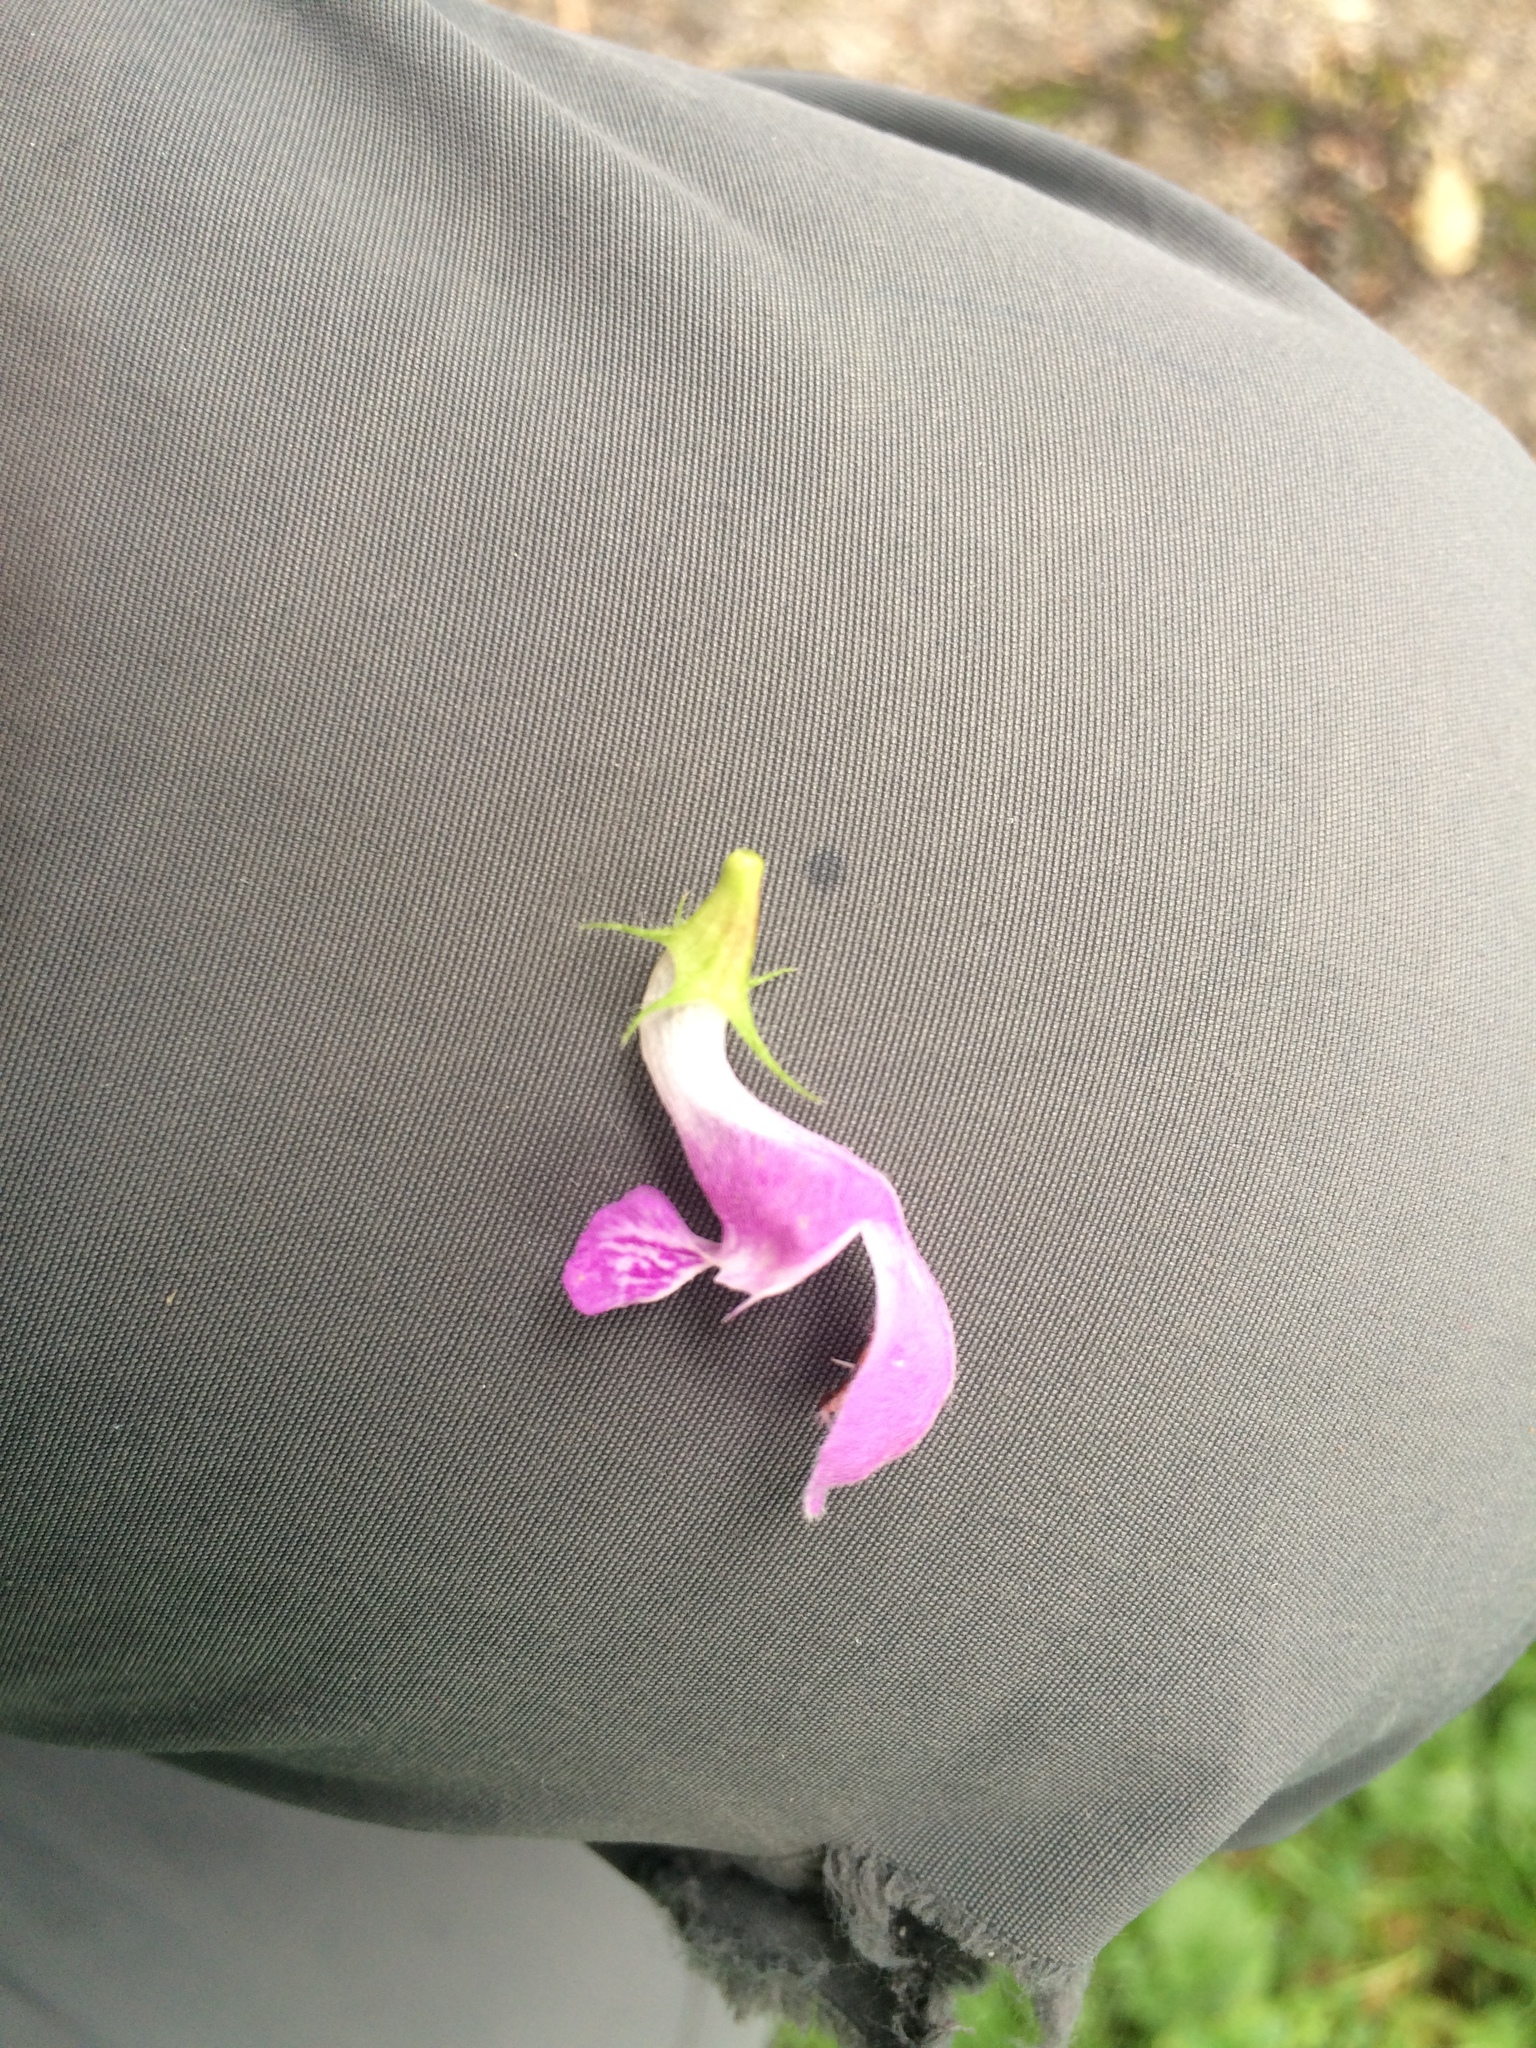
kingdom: Plantae
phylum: Tracheophyta
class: Magnoliopsida
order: Lamiales
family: Lamiaceae
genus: Lamium
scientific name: Lamium maculatum
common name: Spotted dead-nettle
